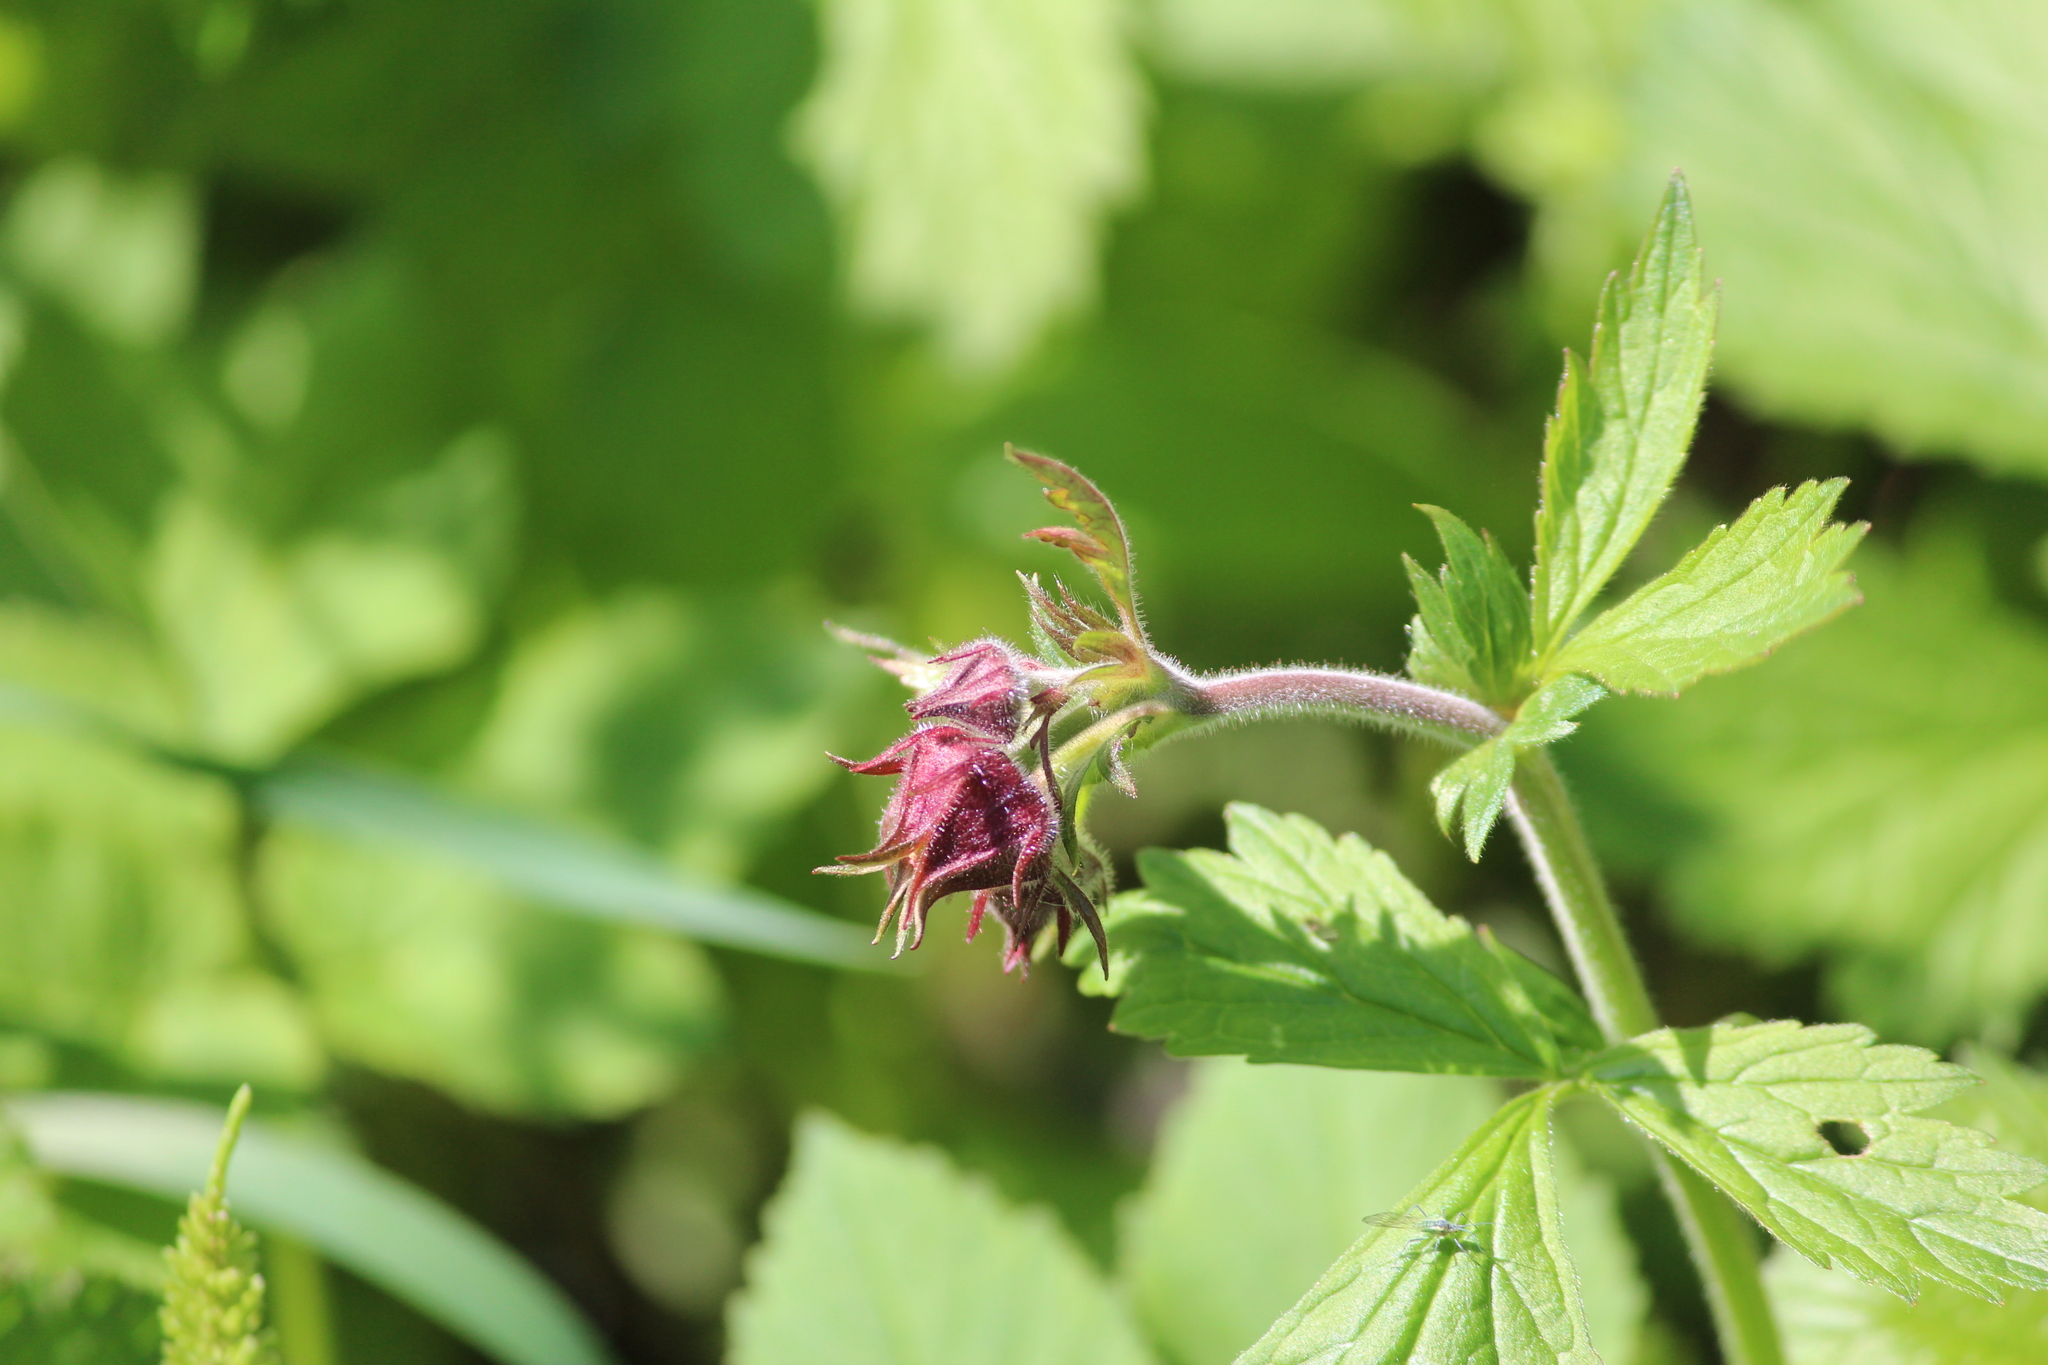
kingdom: Plantae
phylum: Tracheophyta
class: Magnoliopsida
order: Rosales
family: Rosaceae
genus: Geum
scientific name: Geum rivale
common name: Water avens
